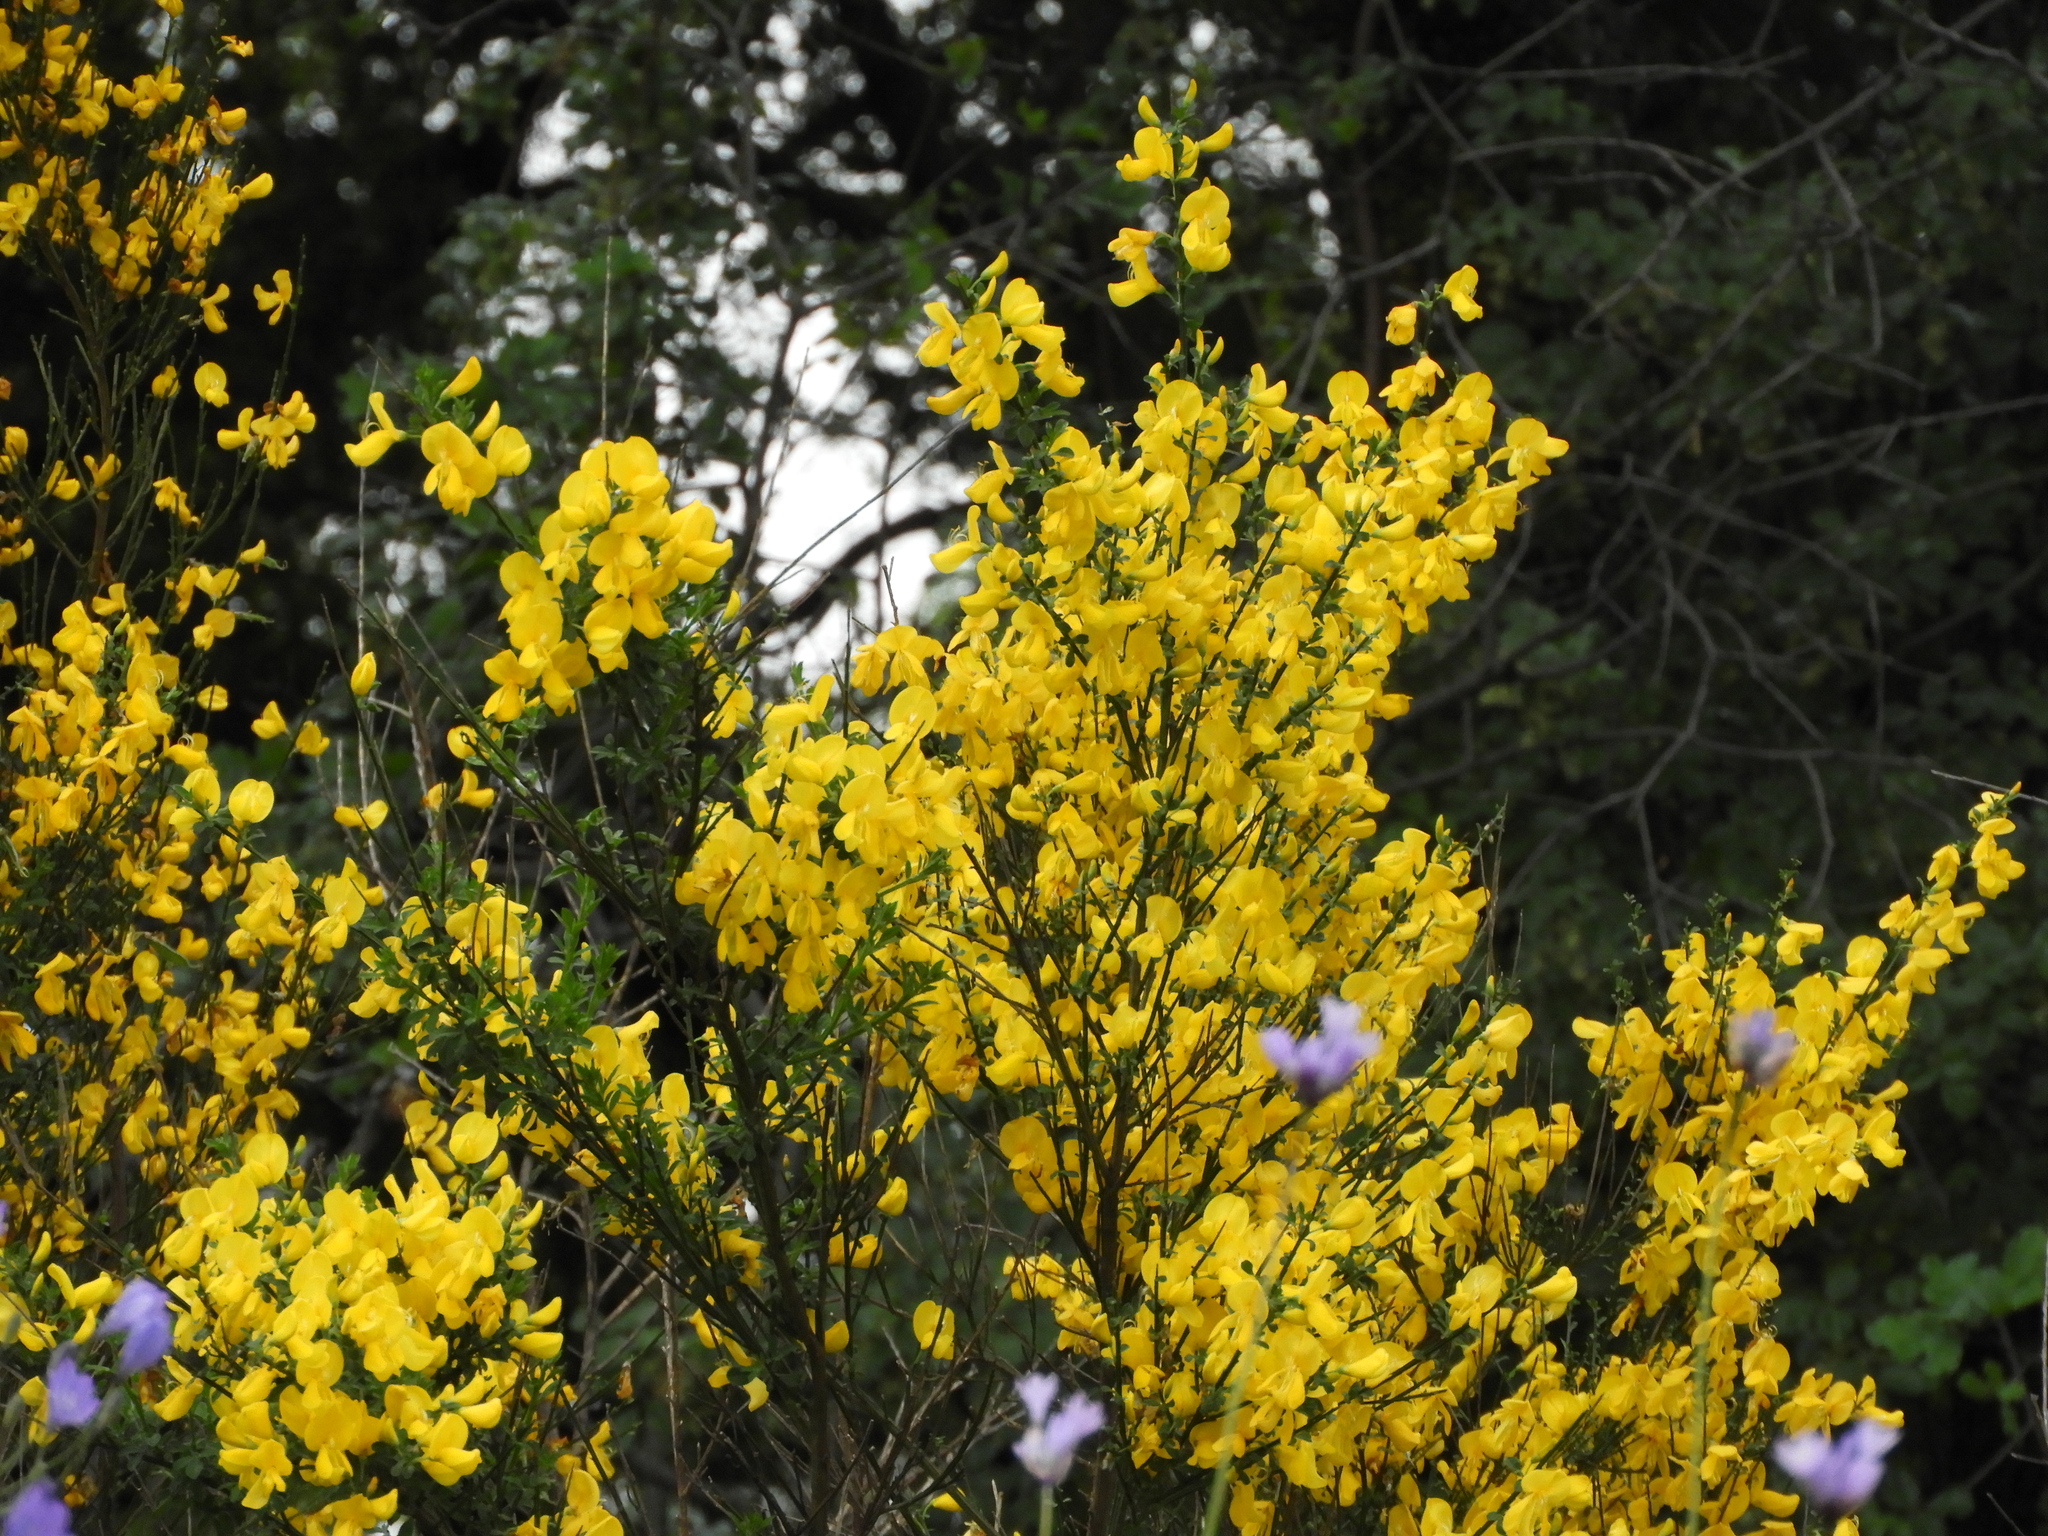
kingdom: Plantae
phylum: Tracheophyta
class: Magnoliopsida
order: Fabales
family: Fabaceae
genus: Cytisus
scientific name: Cytisus scoparius
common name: Scotch broom
